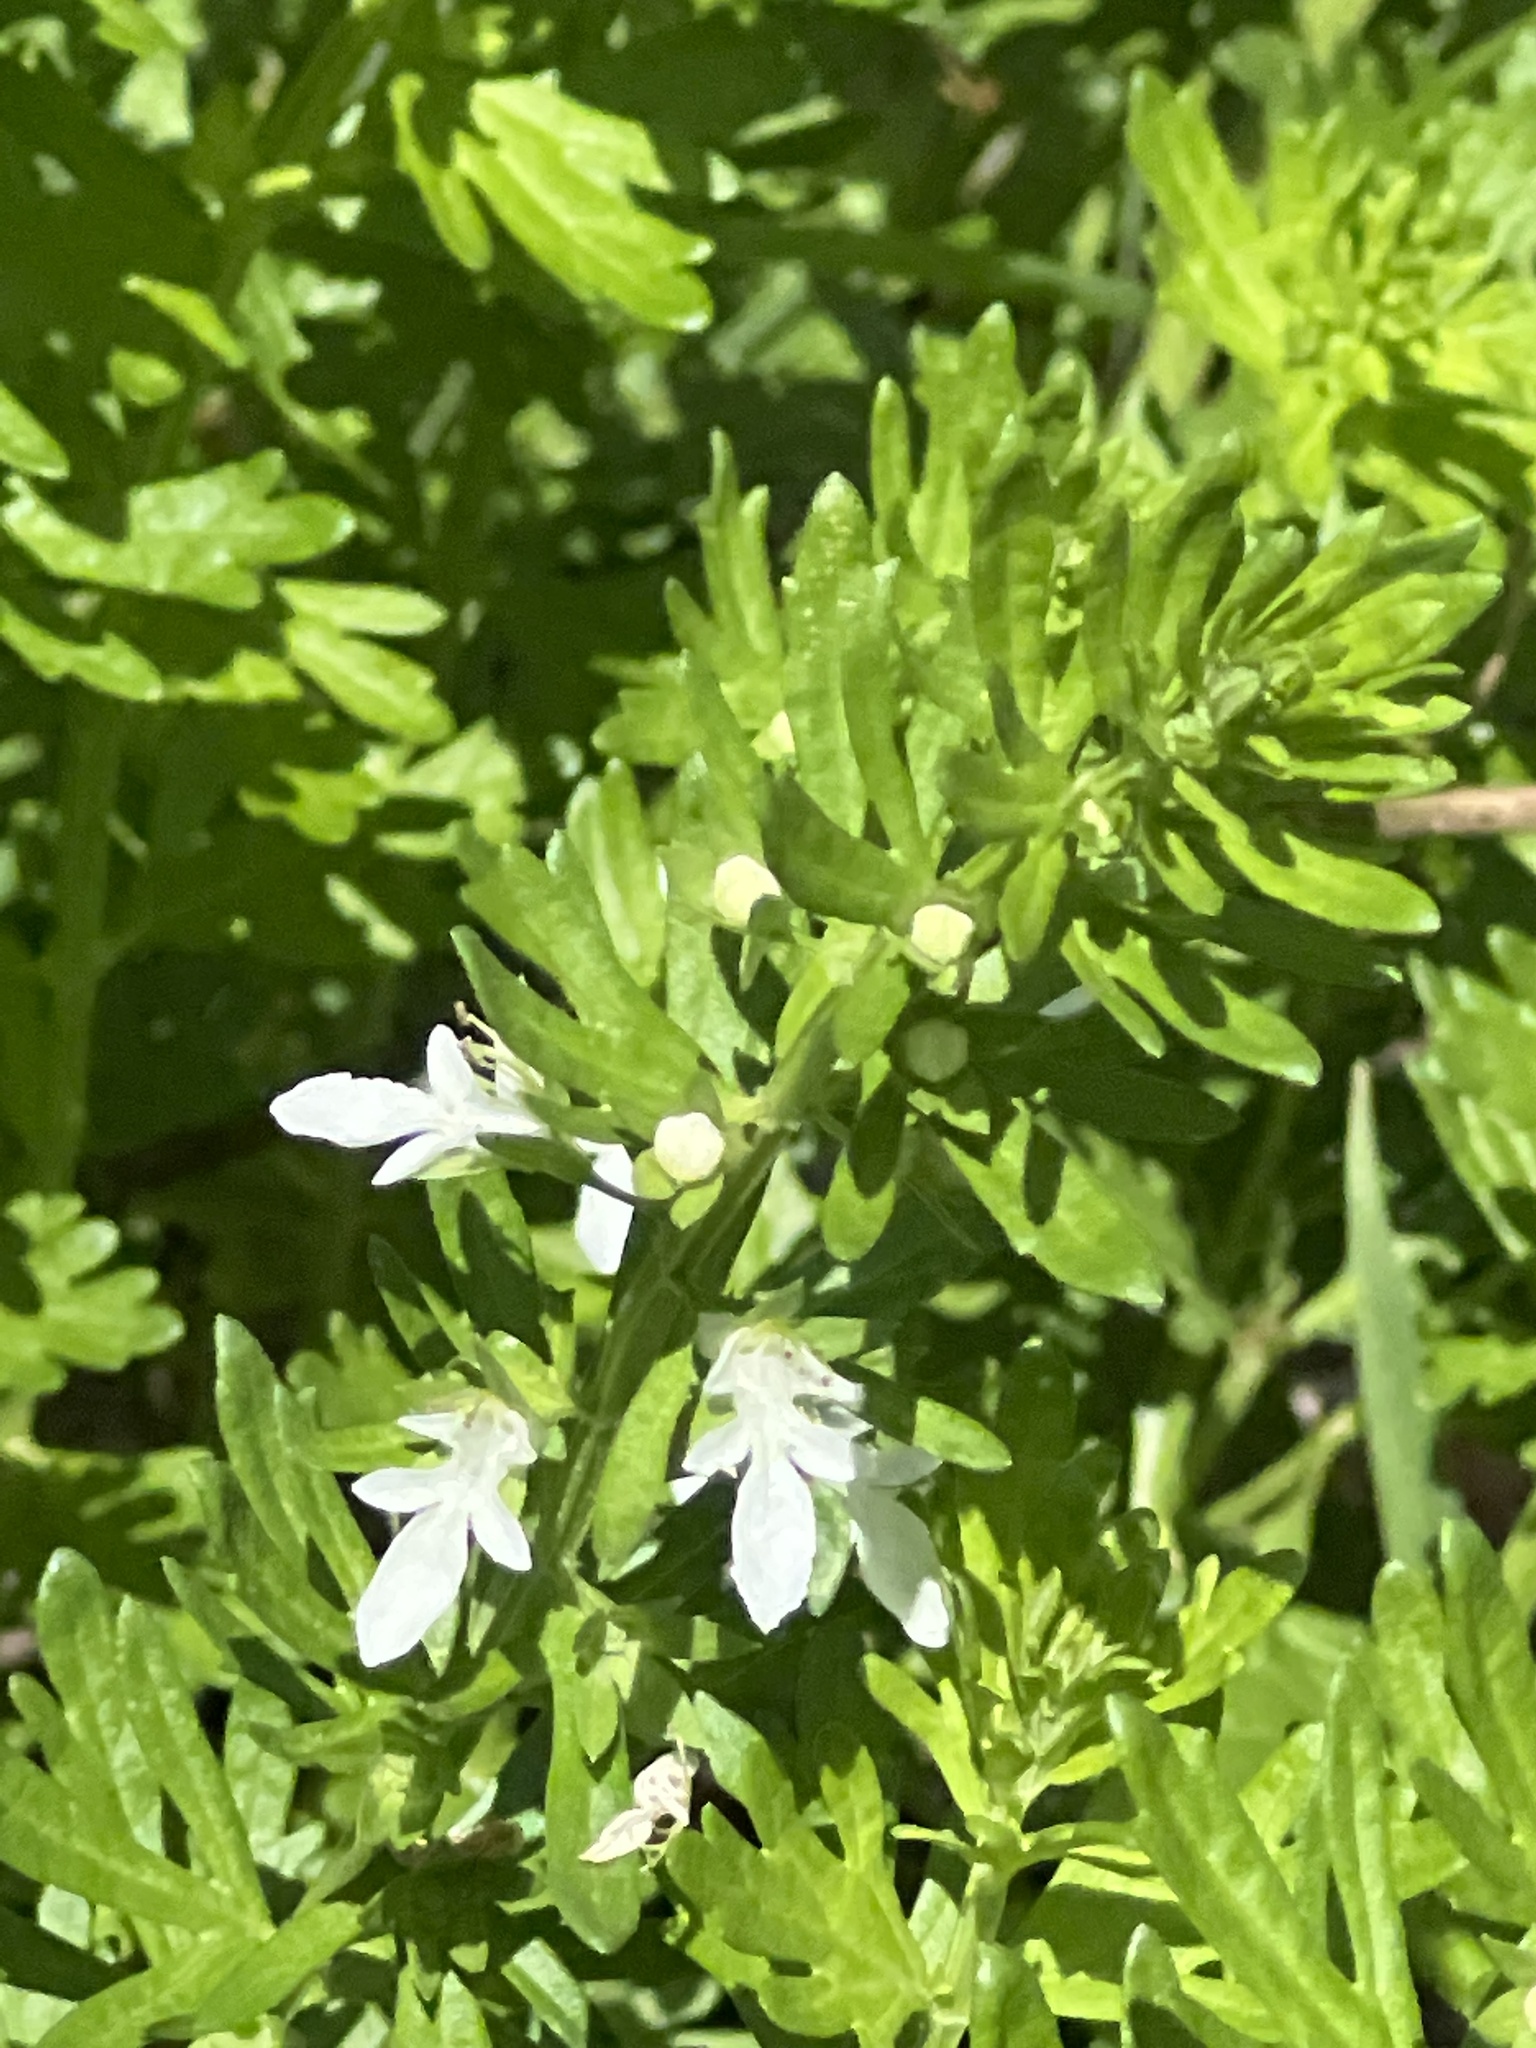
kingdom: Plantae
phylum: Tracheophyta
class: Magnoliopsida
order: Lamiales
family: Lamiaceae
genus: Teucrium
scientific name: Teucrium cubense
